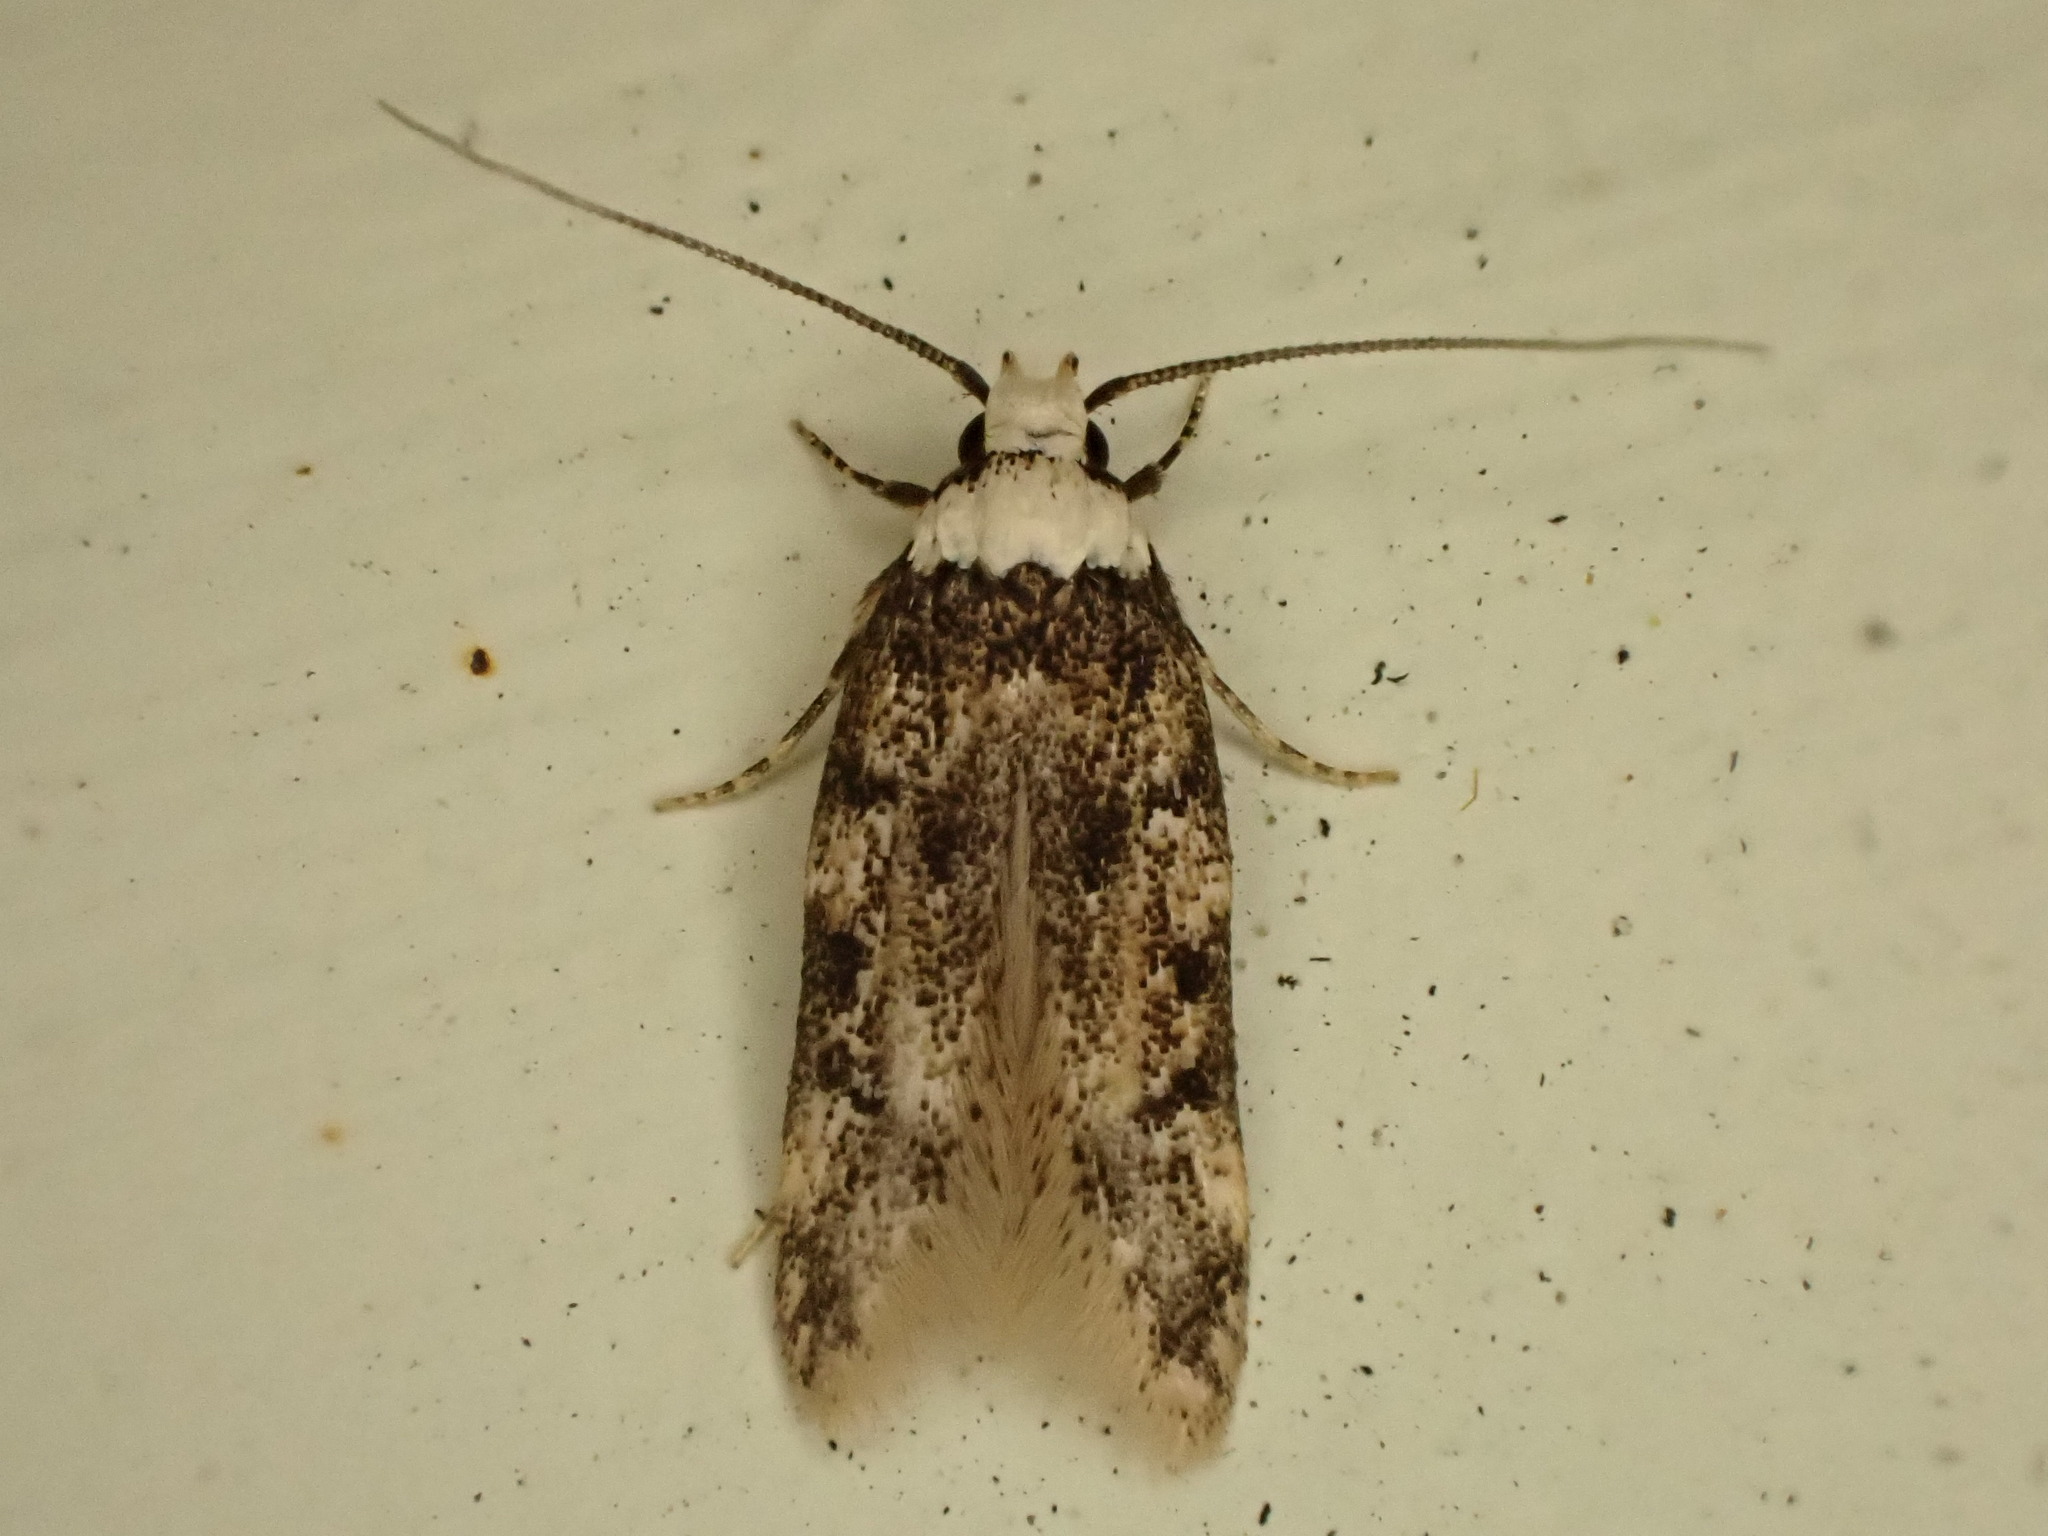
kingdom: Animalia
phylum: Arthropoda
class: Insecta
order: Lepidoptera
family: Oecophoridae
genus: Endrosis
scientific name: Endrosis sarcitrella
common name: White-shouldered house moth
